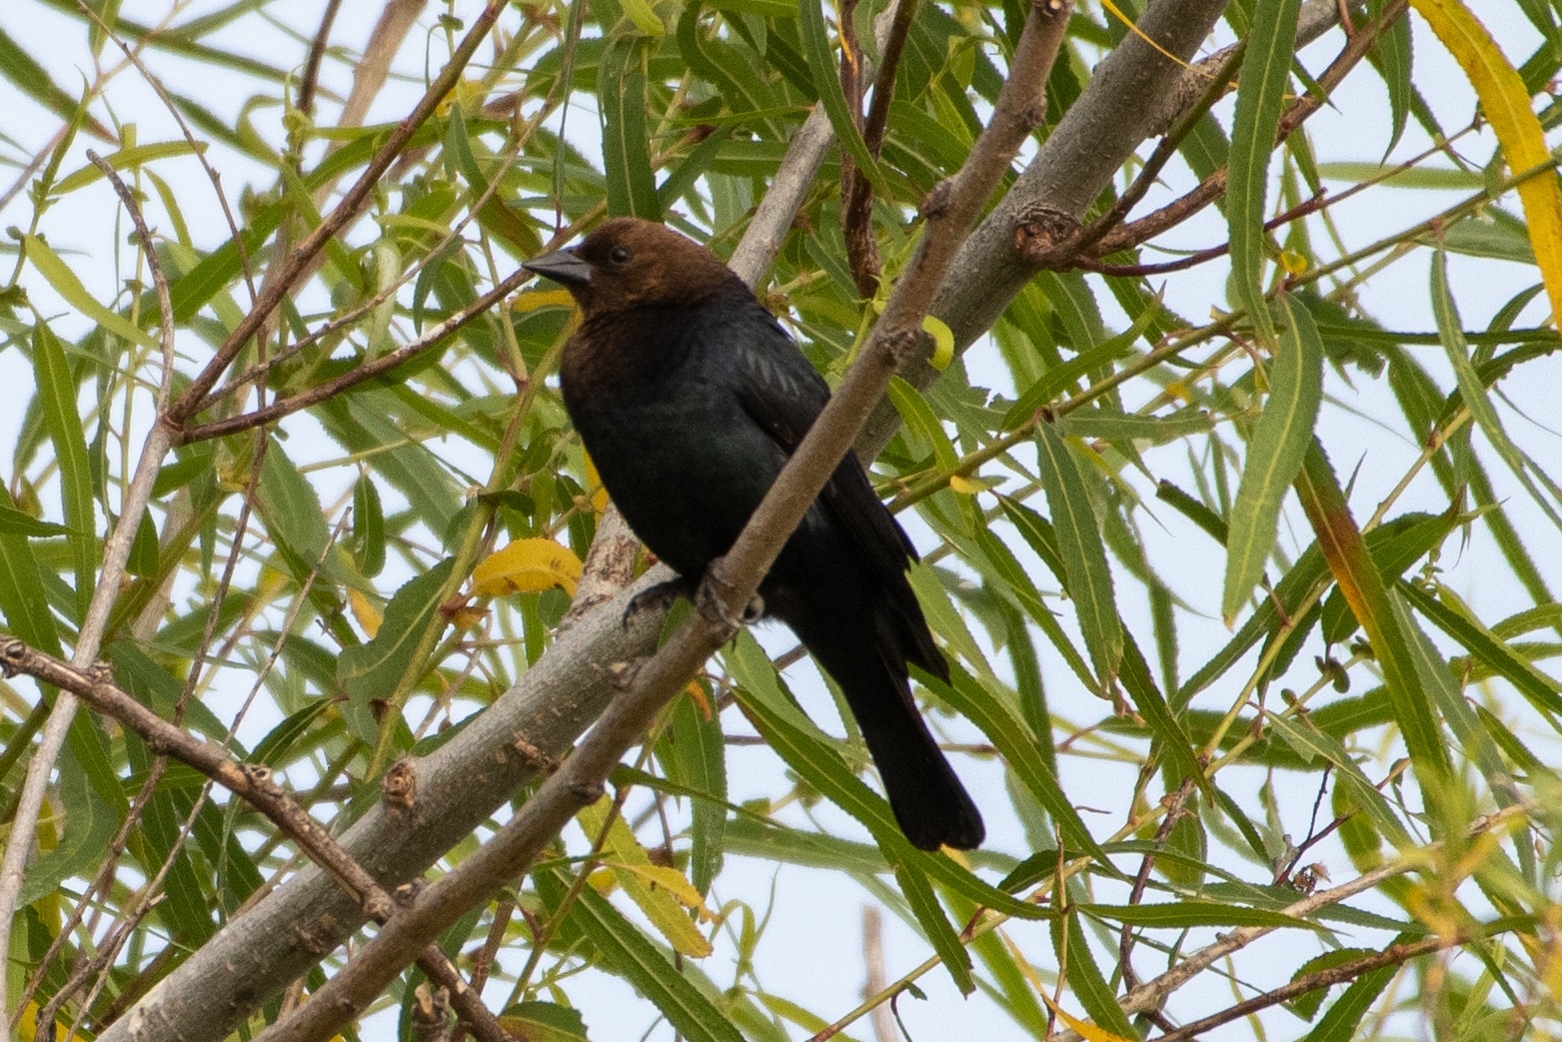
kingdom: Animalia
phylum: Chordata
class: Aves
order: Passeriformes
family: Icteridae
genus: Molothrus
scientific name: Molothrus ater
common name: Brown-headed cowbird
